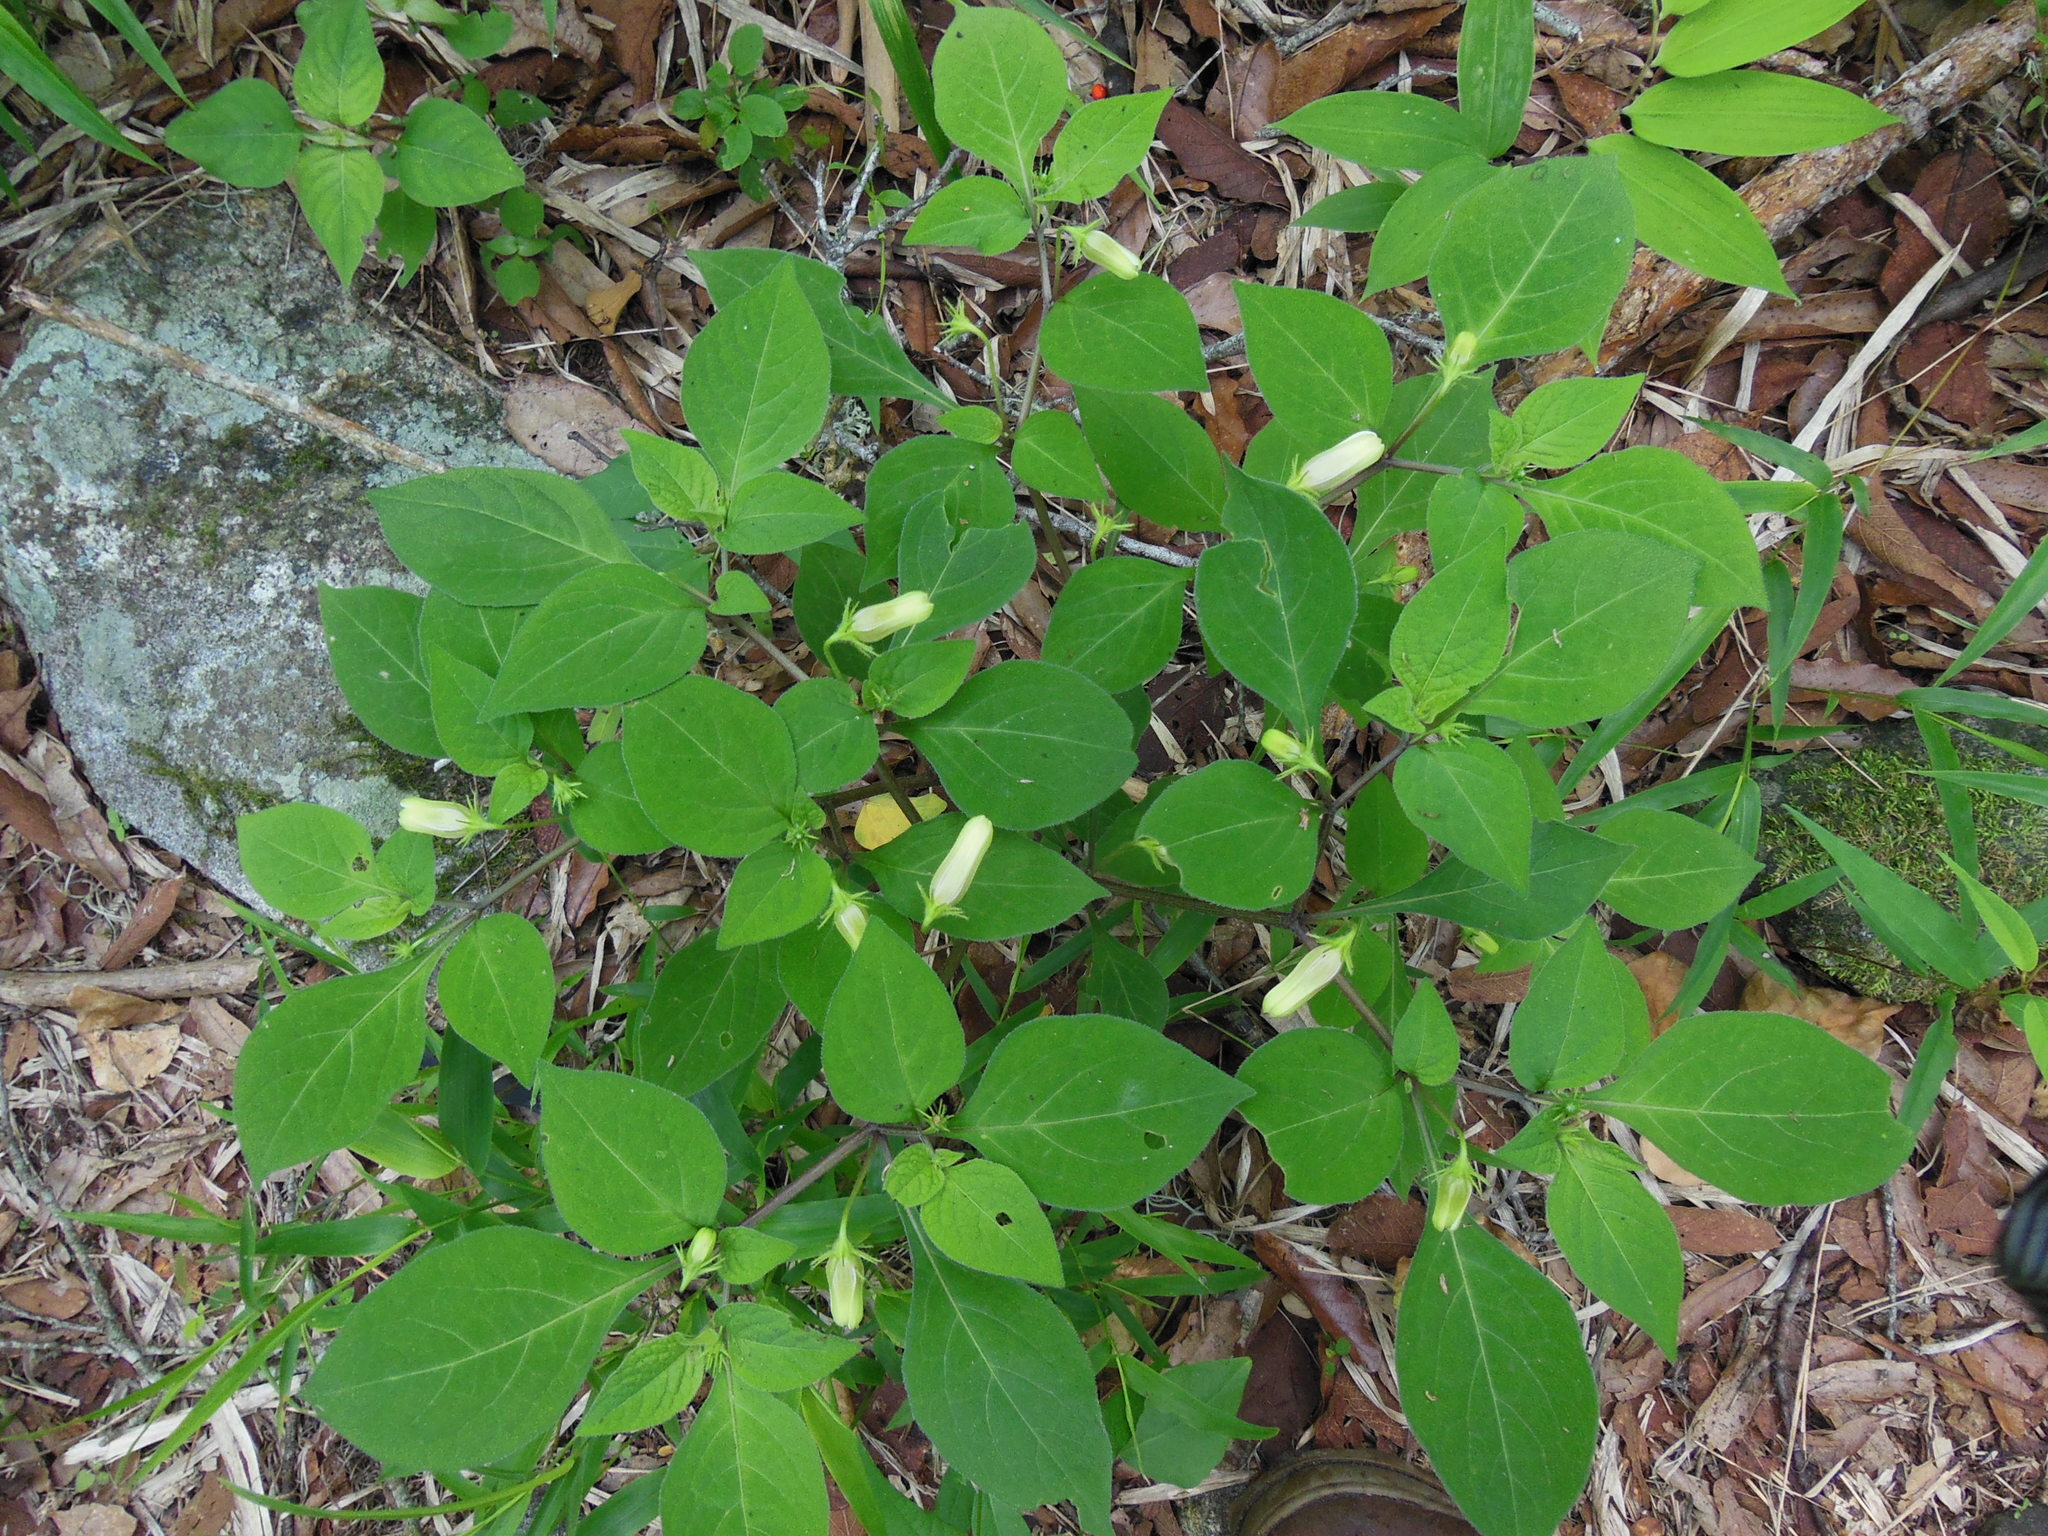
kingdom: Plantae
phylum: Tracheophyta
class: Magnoliopsida
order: Solanales
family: Solanaceae
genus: Lycianthes
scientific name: Lycianthes arrazolensis
